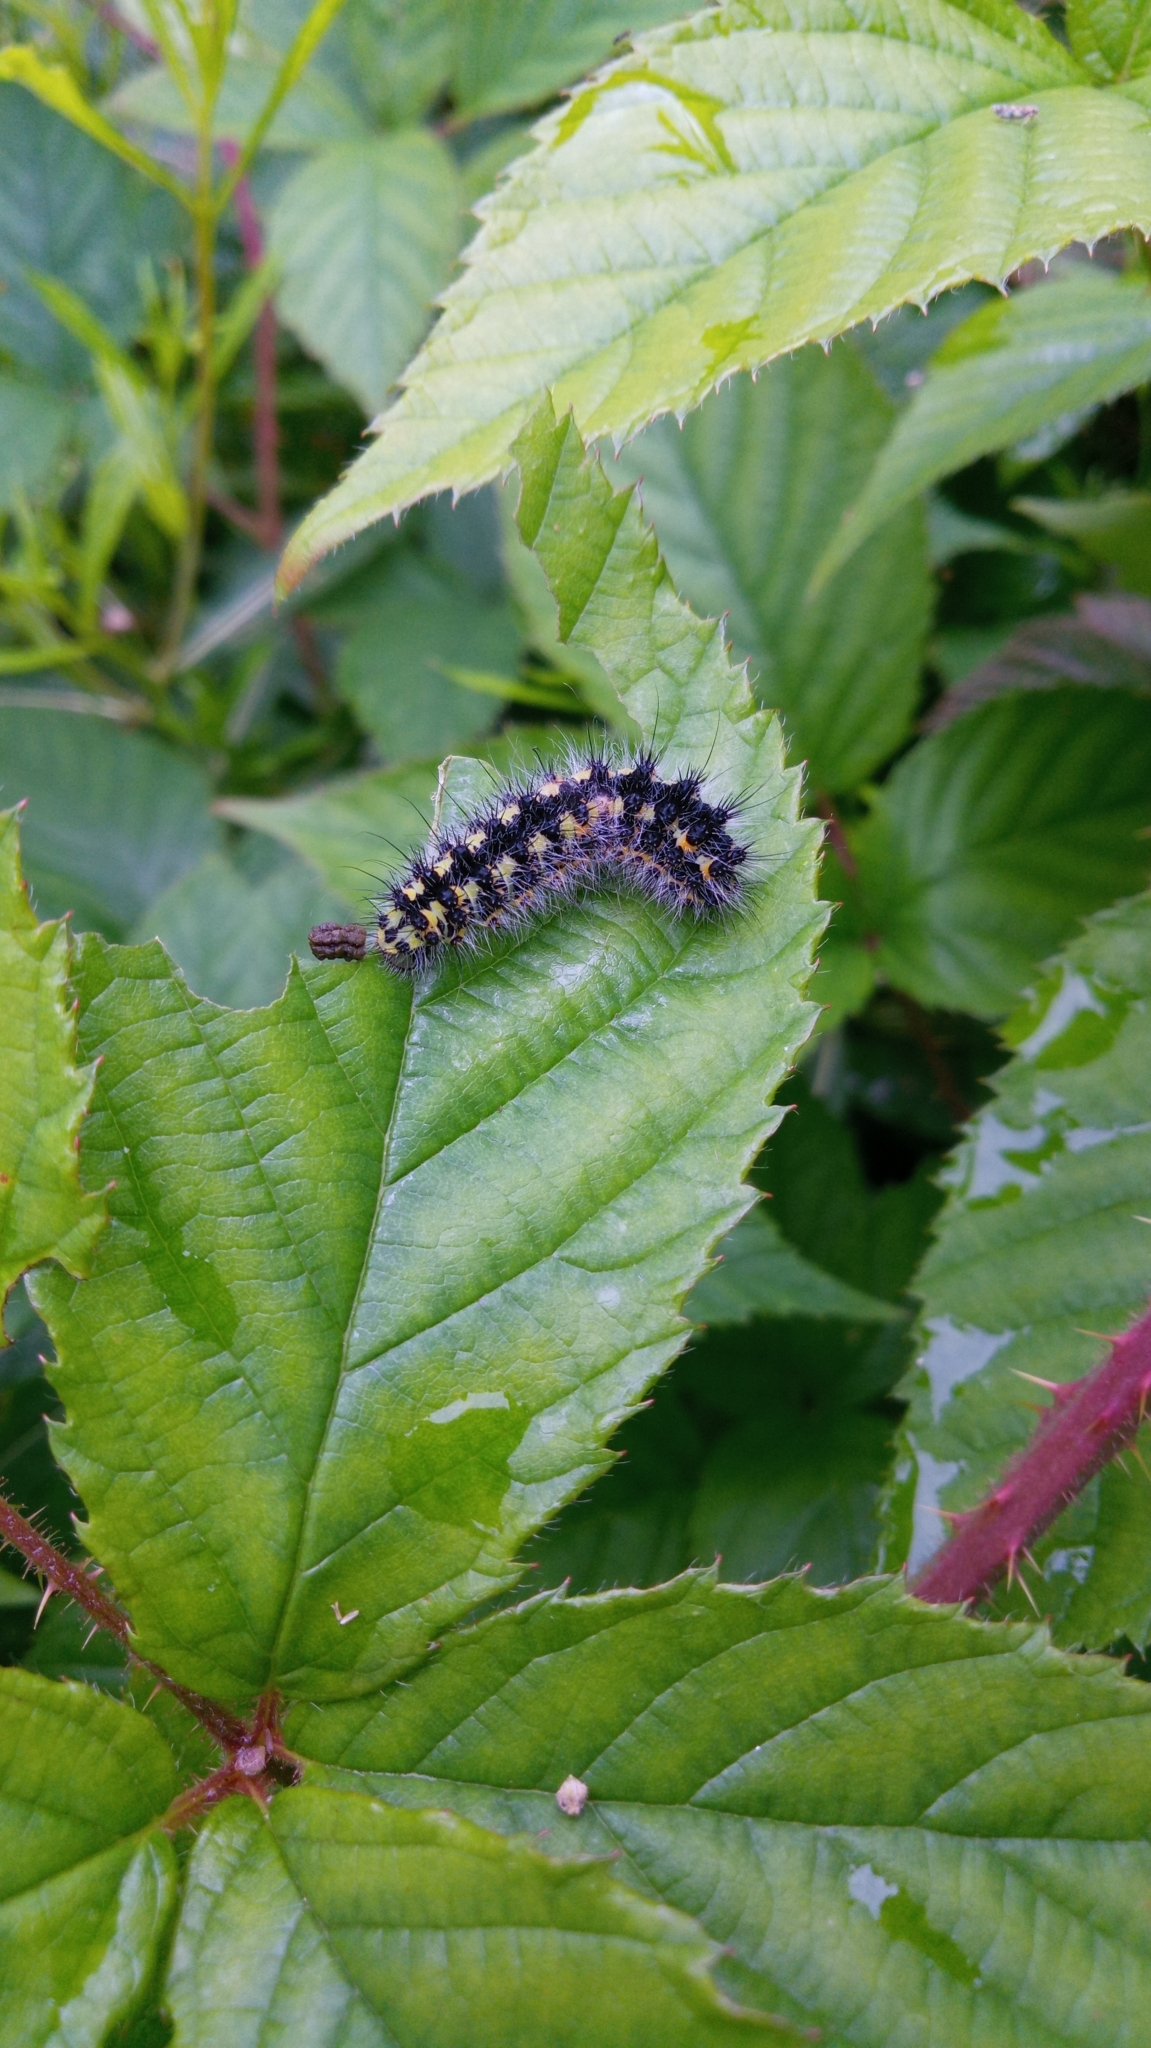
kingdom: Animalia
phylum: Arthropoda
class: Insecta
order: Lepidoptera
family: Saturniidae
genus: Saturnia
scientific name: Saturnia pavonia
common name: Emperor moth
